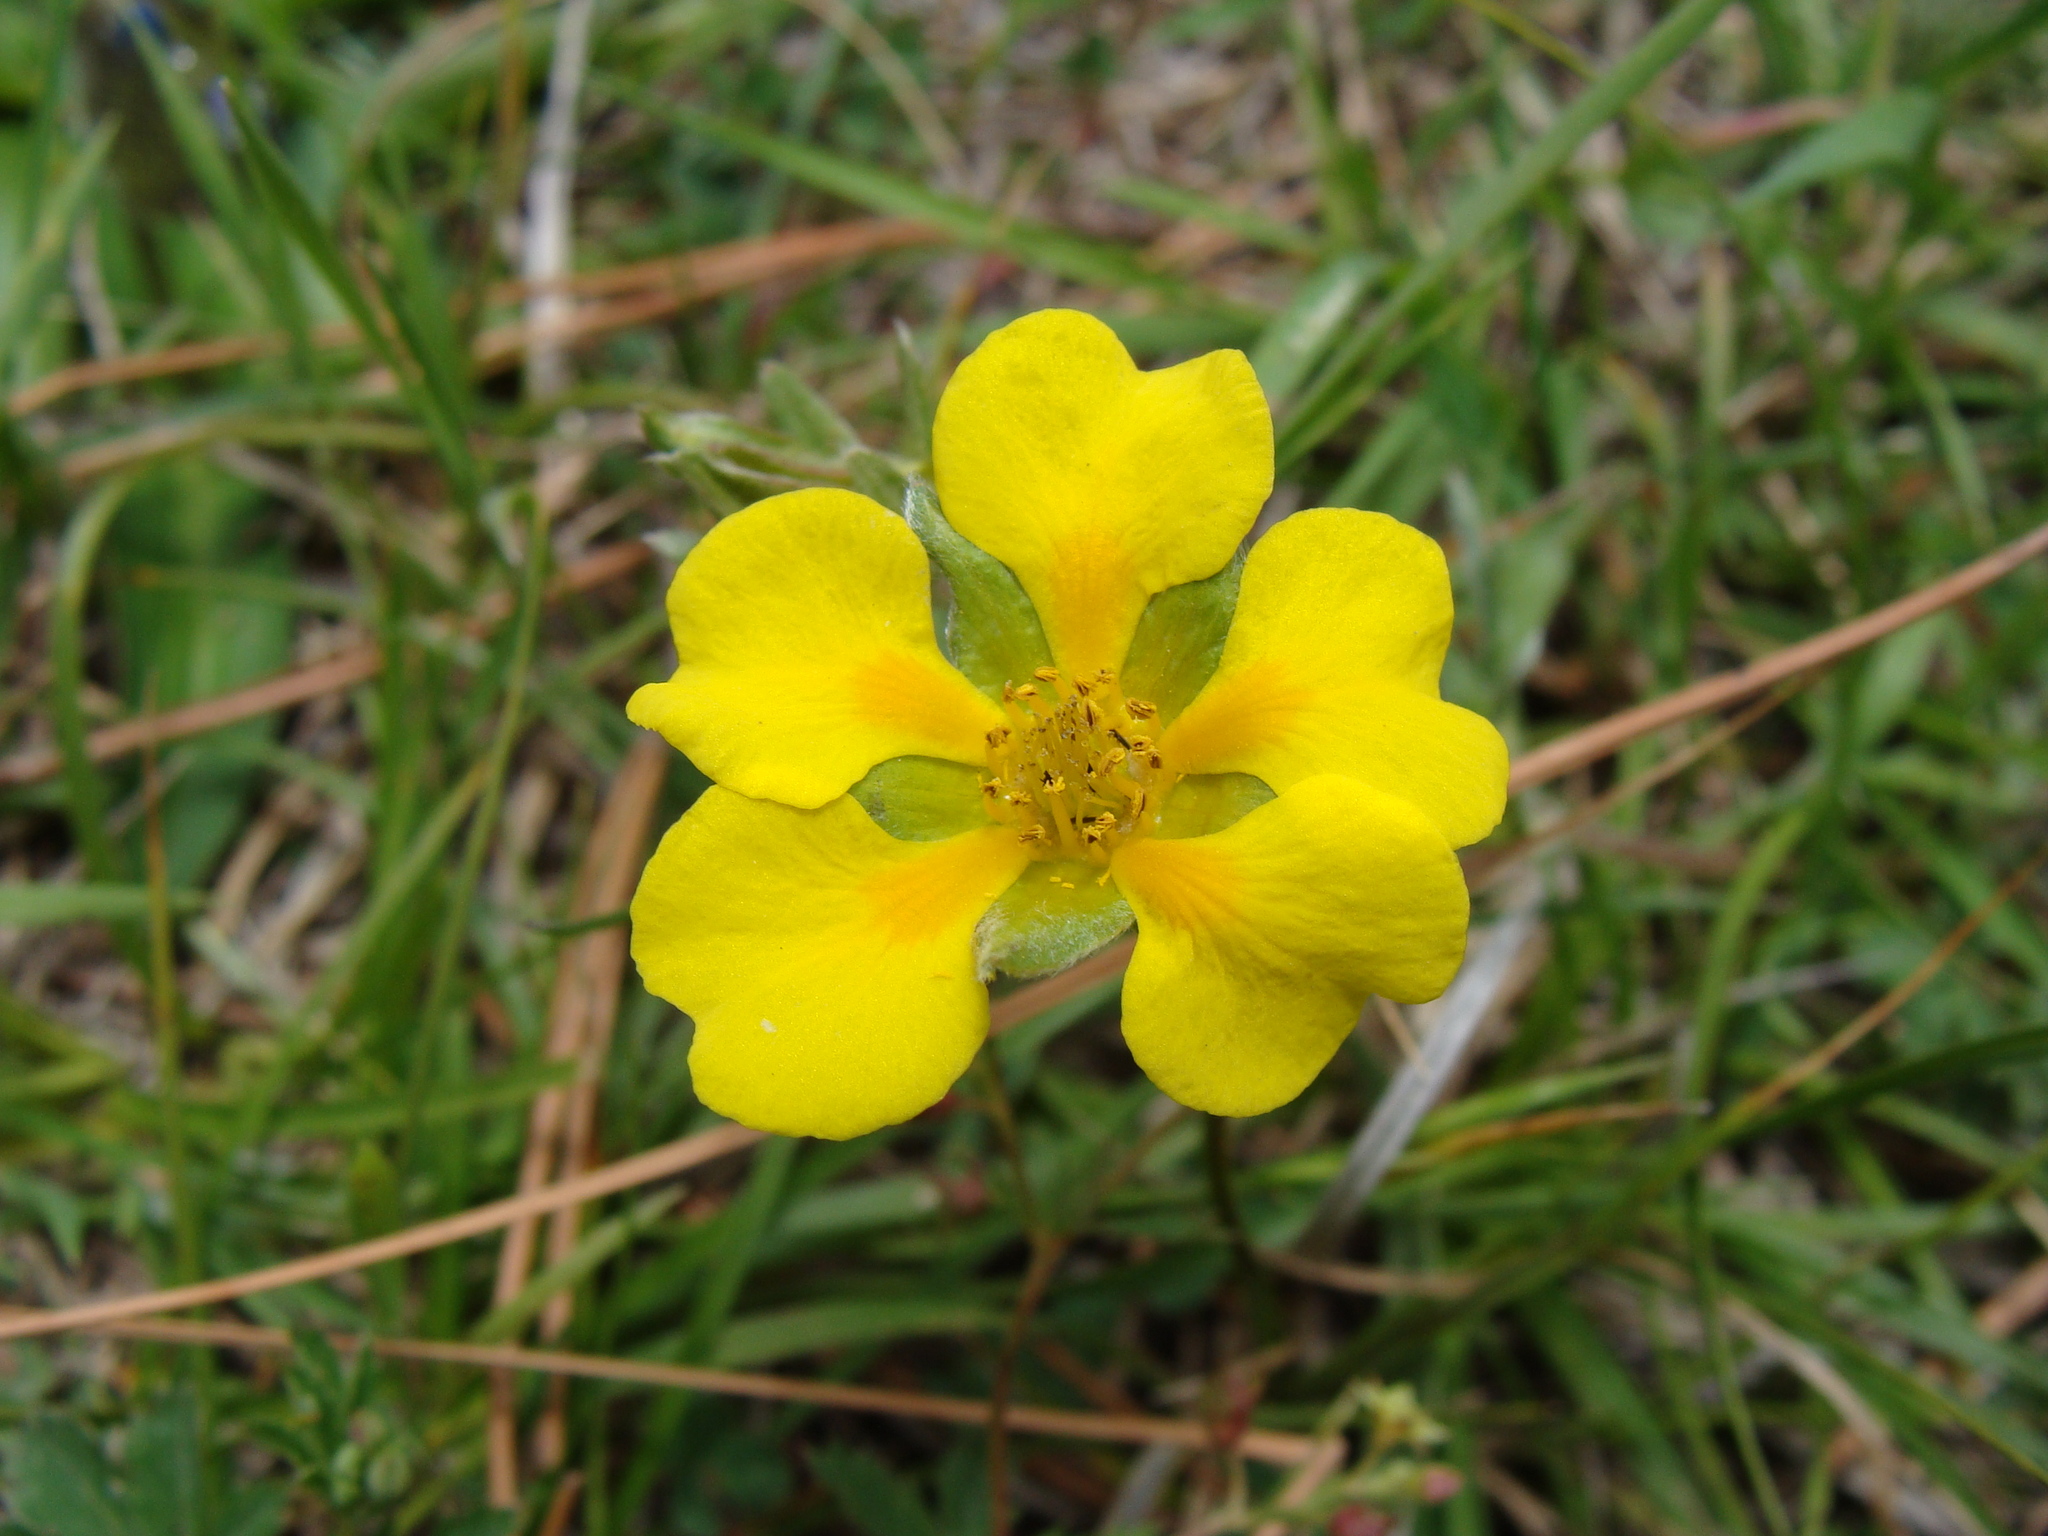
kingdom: Plantae
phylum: Tracheophyta
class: Magnoliopsida
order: Rosales
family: Rosaceae
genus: Potentilla
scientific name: Potentilla candicans
